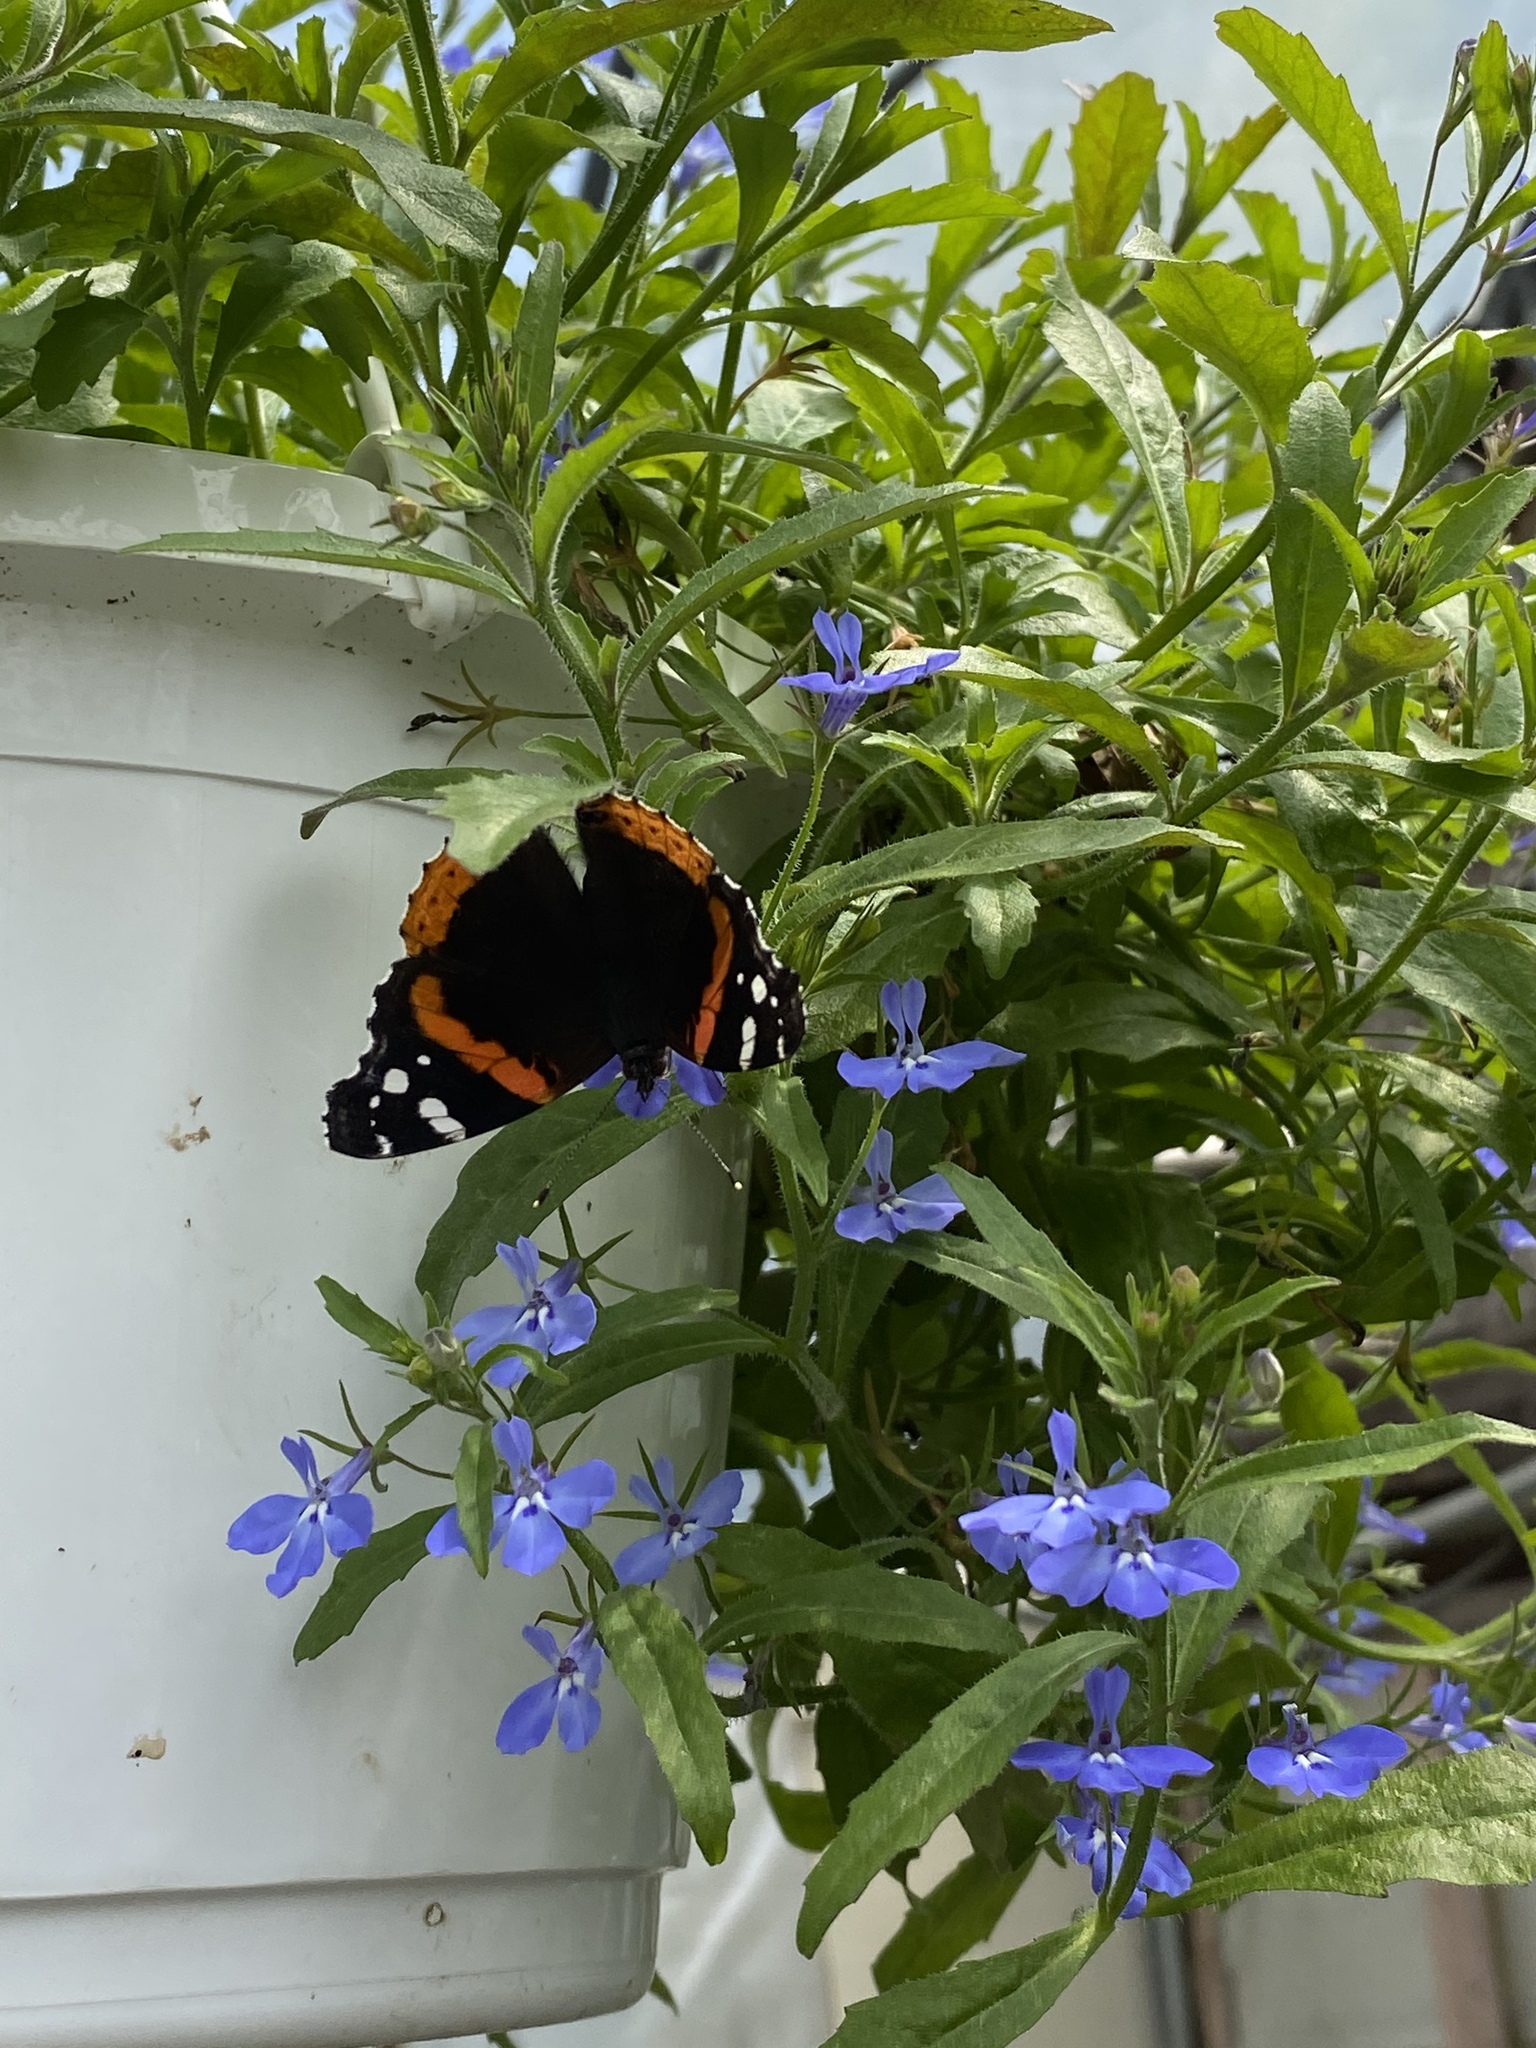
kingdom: Animalia
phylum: Arthropoda
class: Insecta
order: Lepidoptera
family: Nymphalidae
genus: Vanessa
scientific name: Vanessa atalanta
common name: Red admiral
